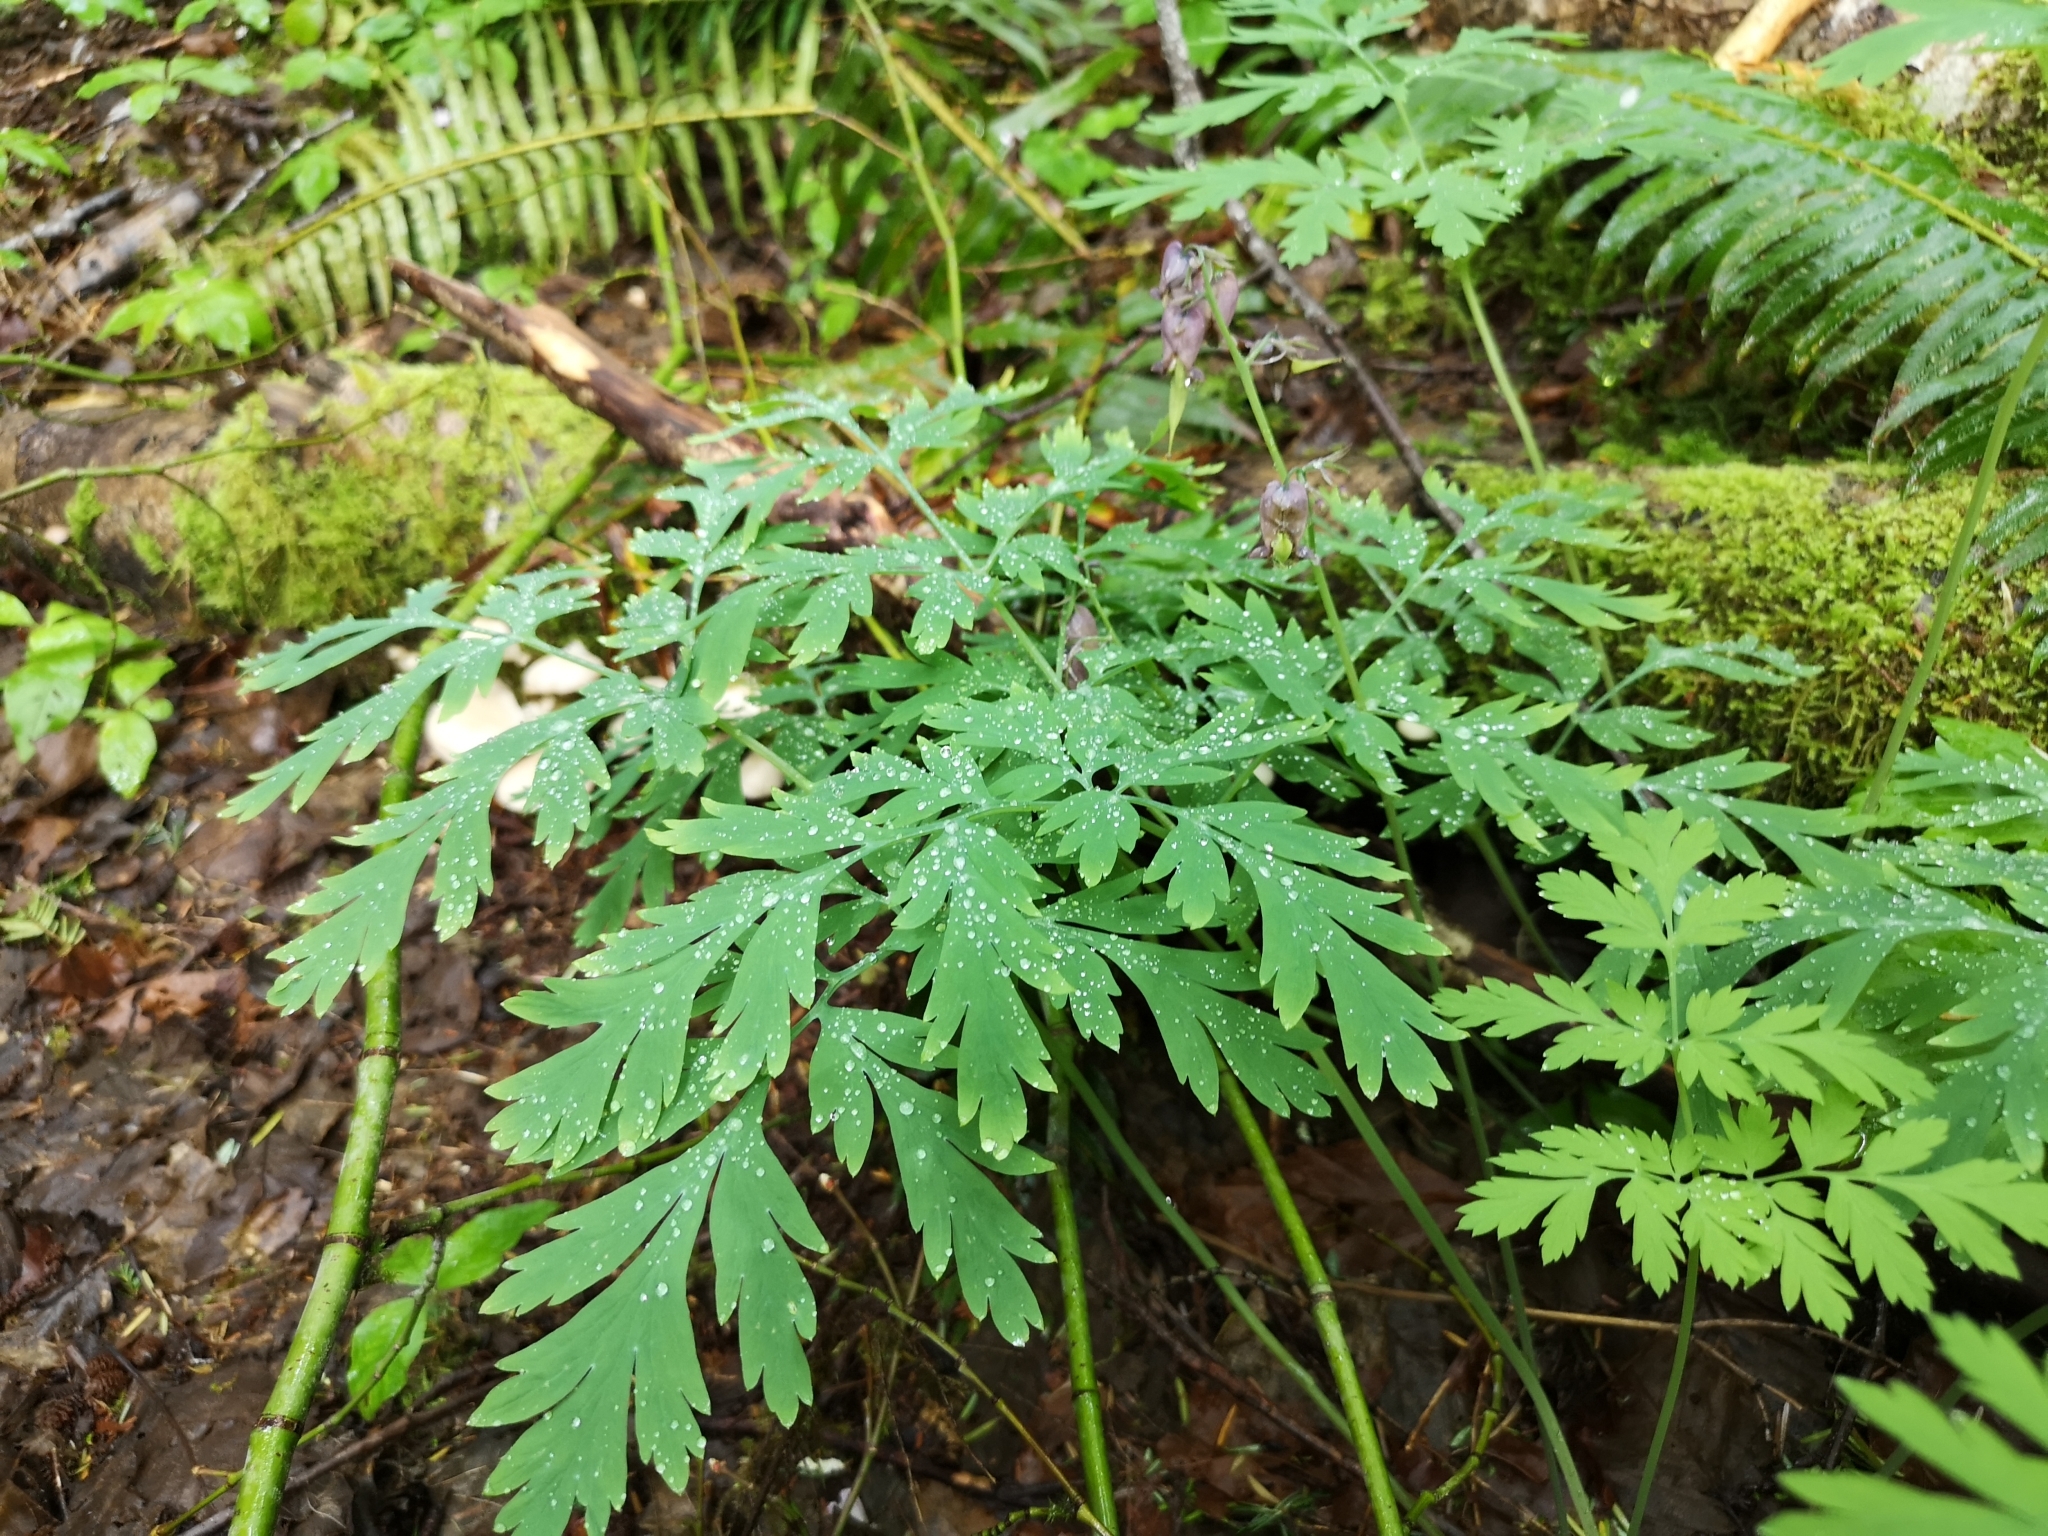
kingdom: Plantae
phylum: Tracheophyta
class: Magnoliopsida
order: Ranunculales
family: Papaveraceae
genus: Dicentra
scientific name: Dicentra formosa
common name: Bleeding-heart
